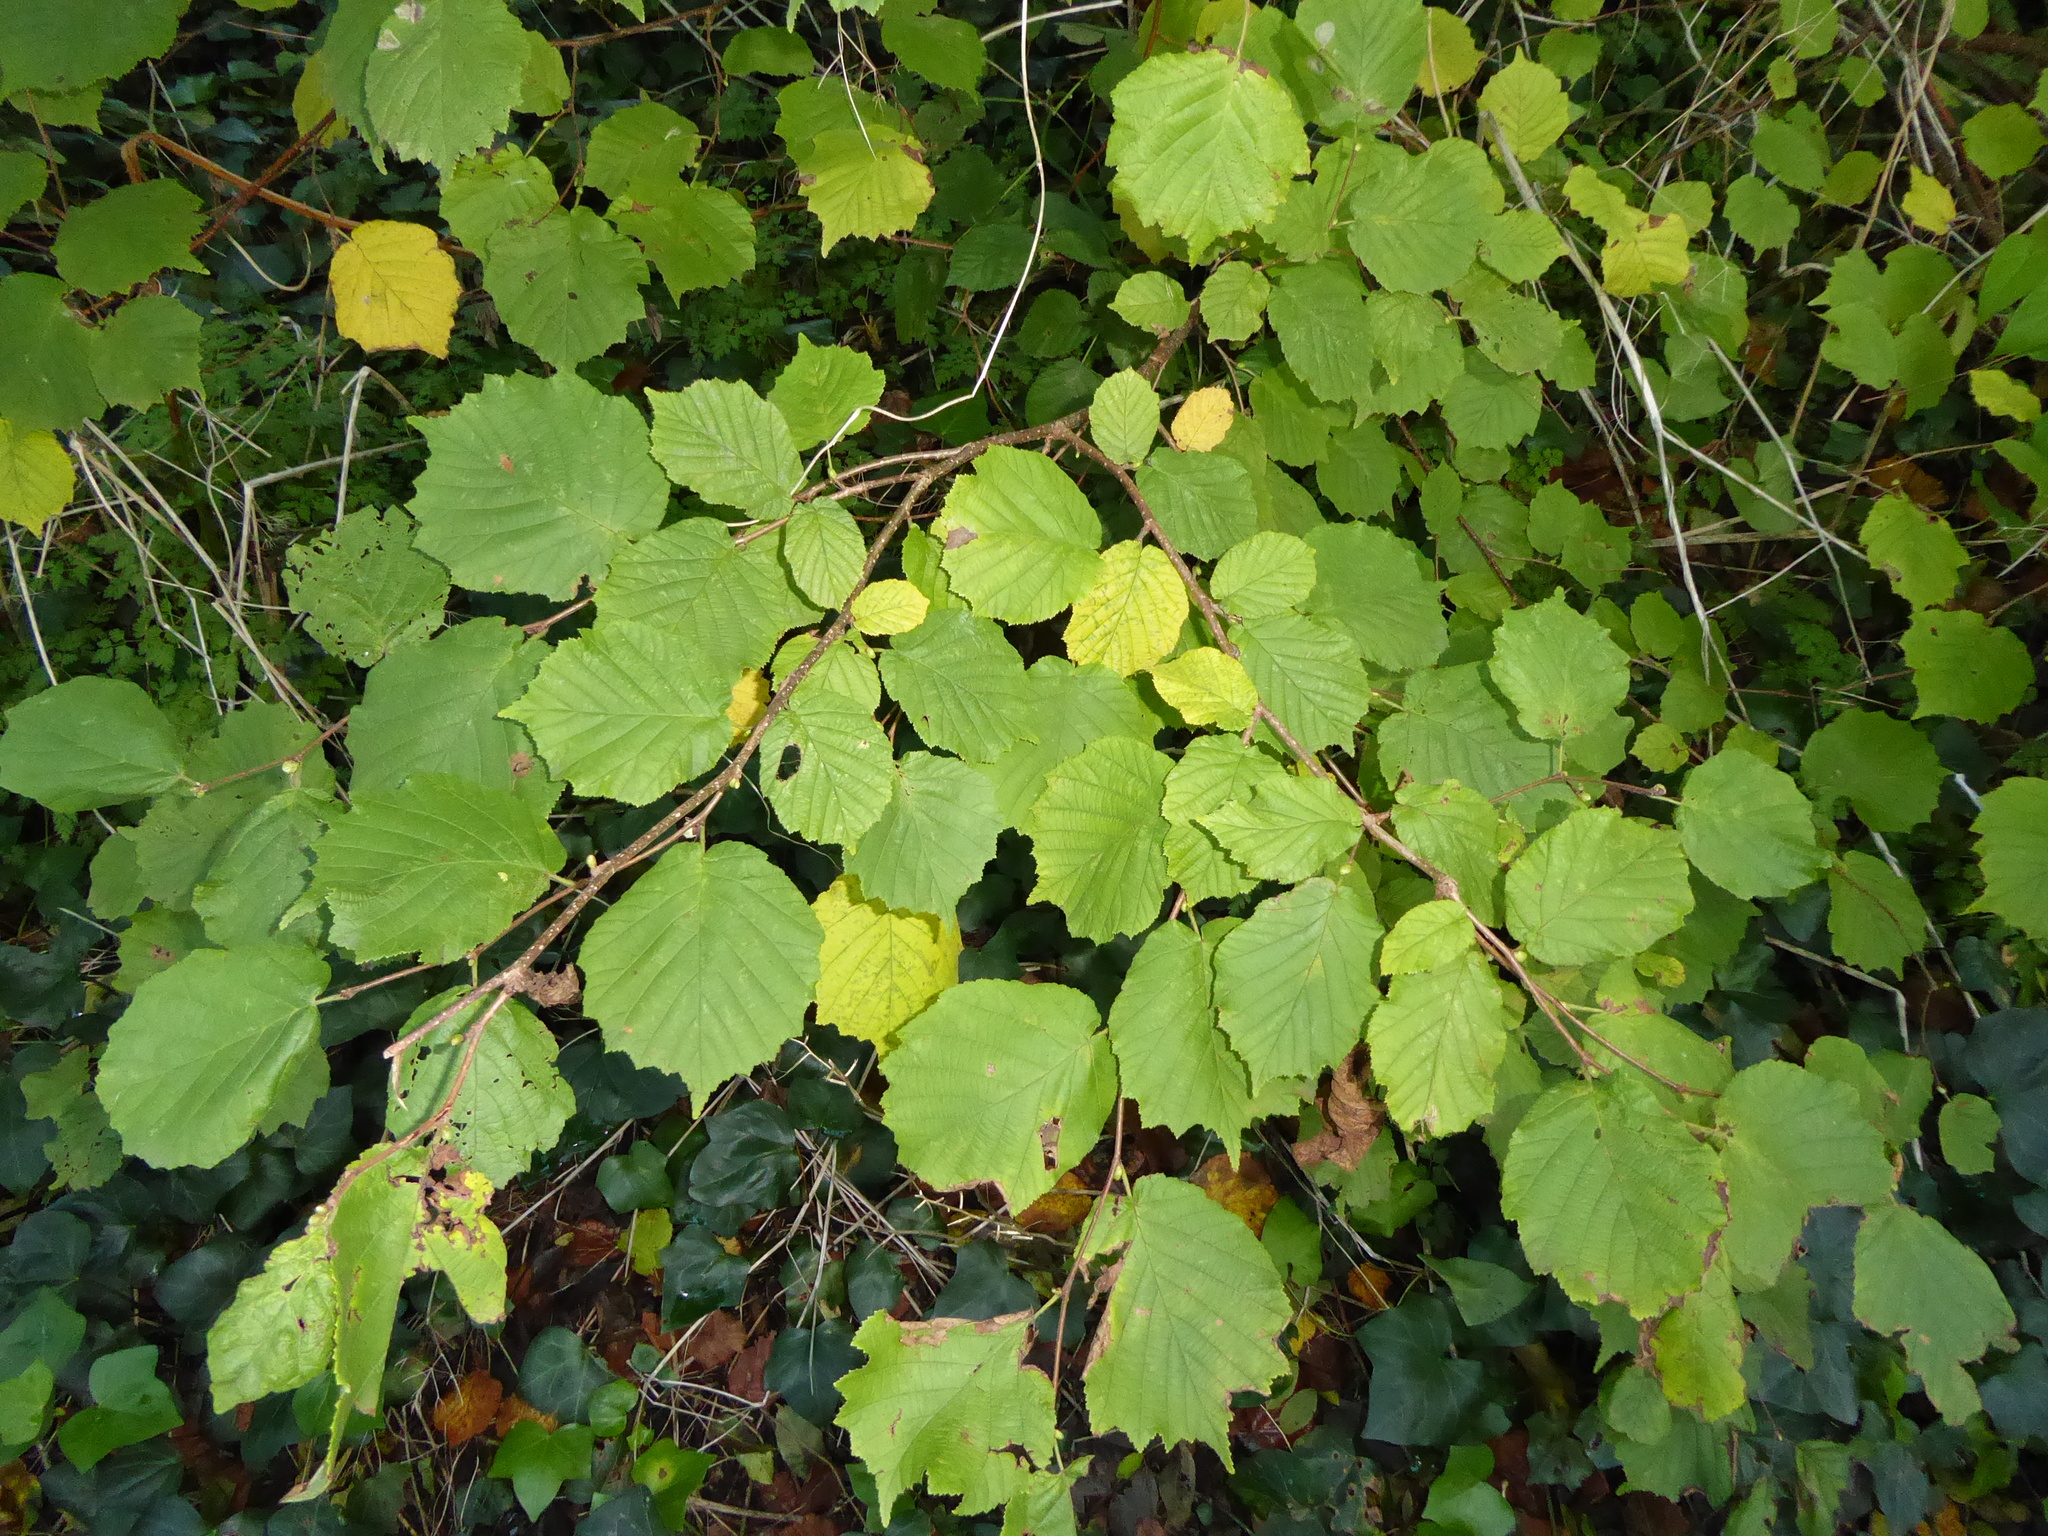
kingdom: Plantae
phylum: Tracheophyta
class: Magnoliopsida
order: Fagales
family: Betulaceae
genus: Corylus
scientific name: Corylus avellana
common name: European hazel
